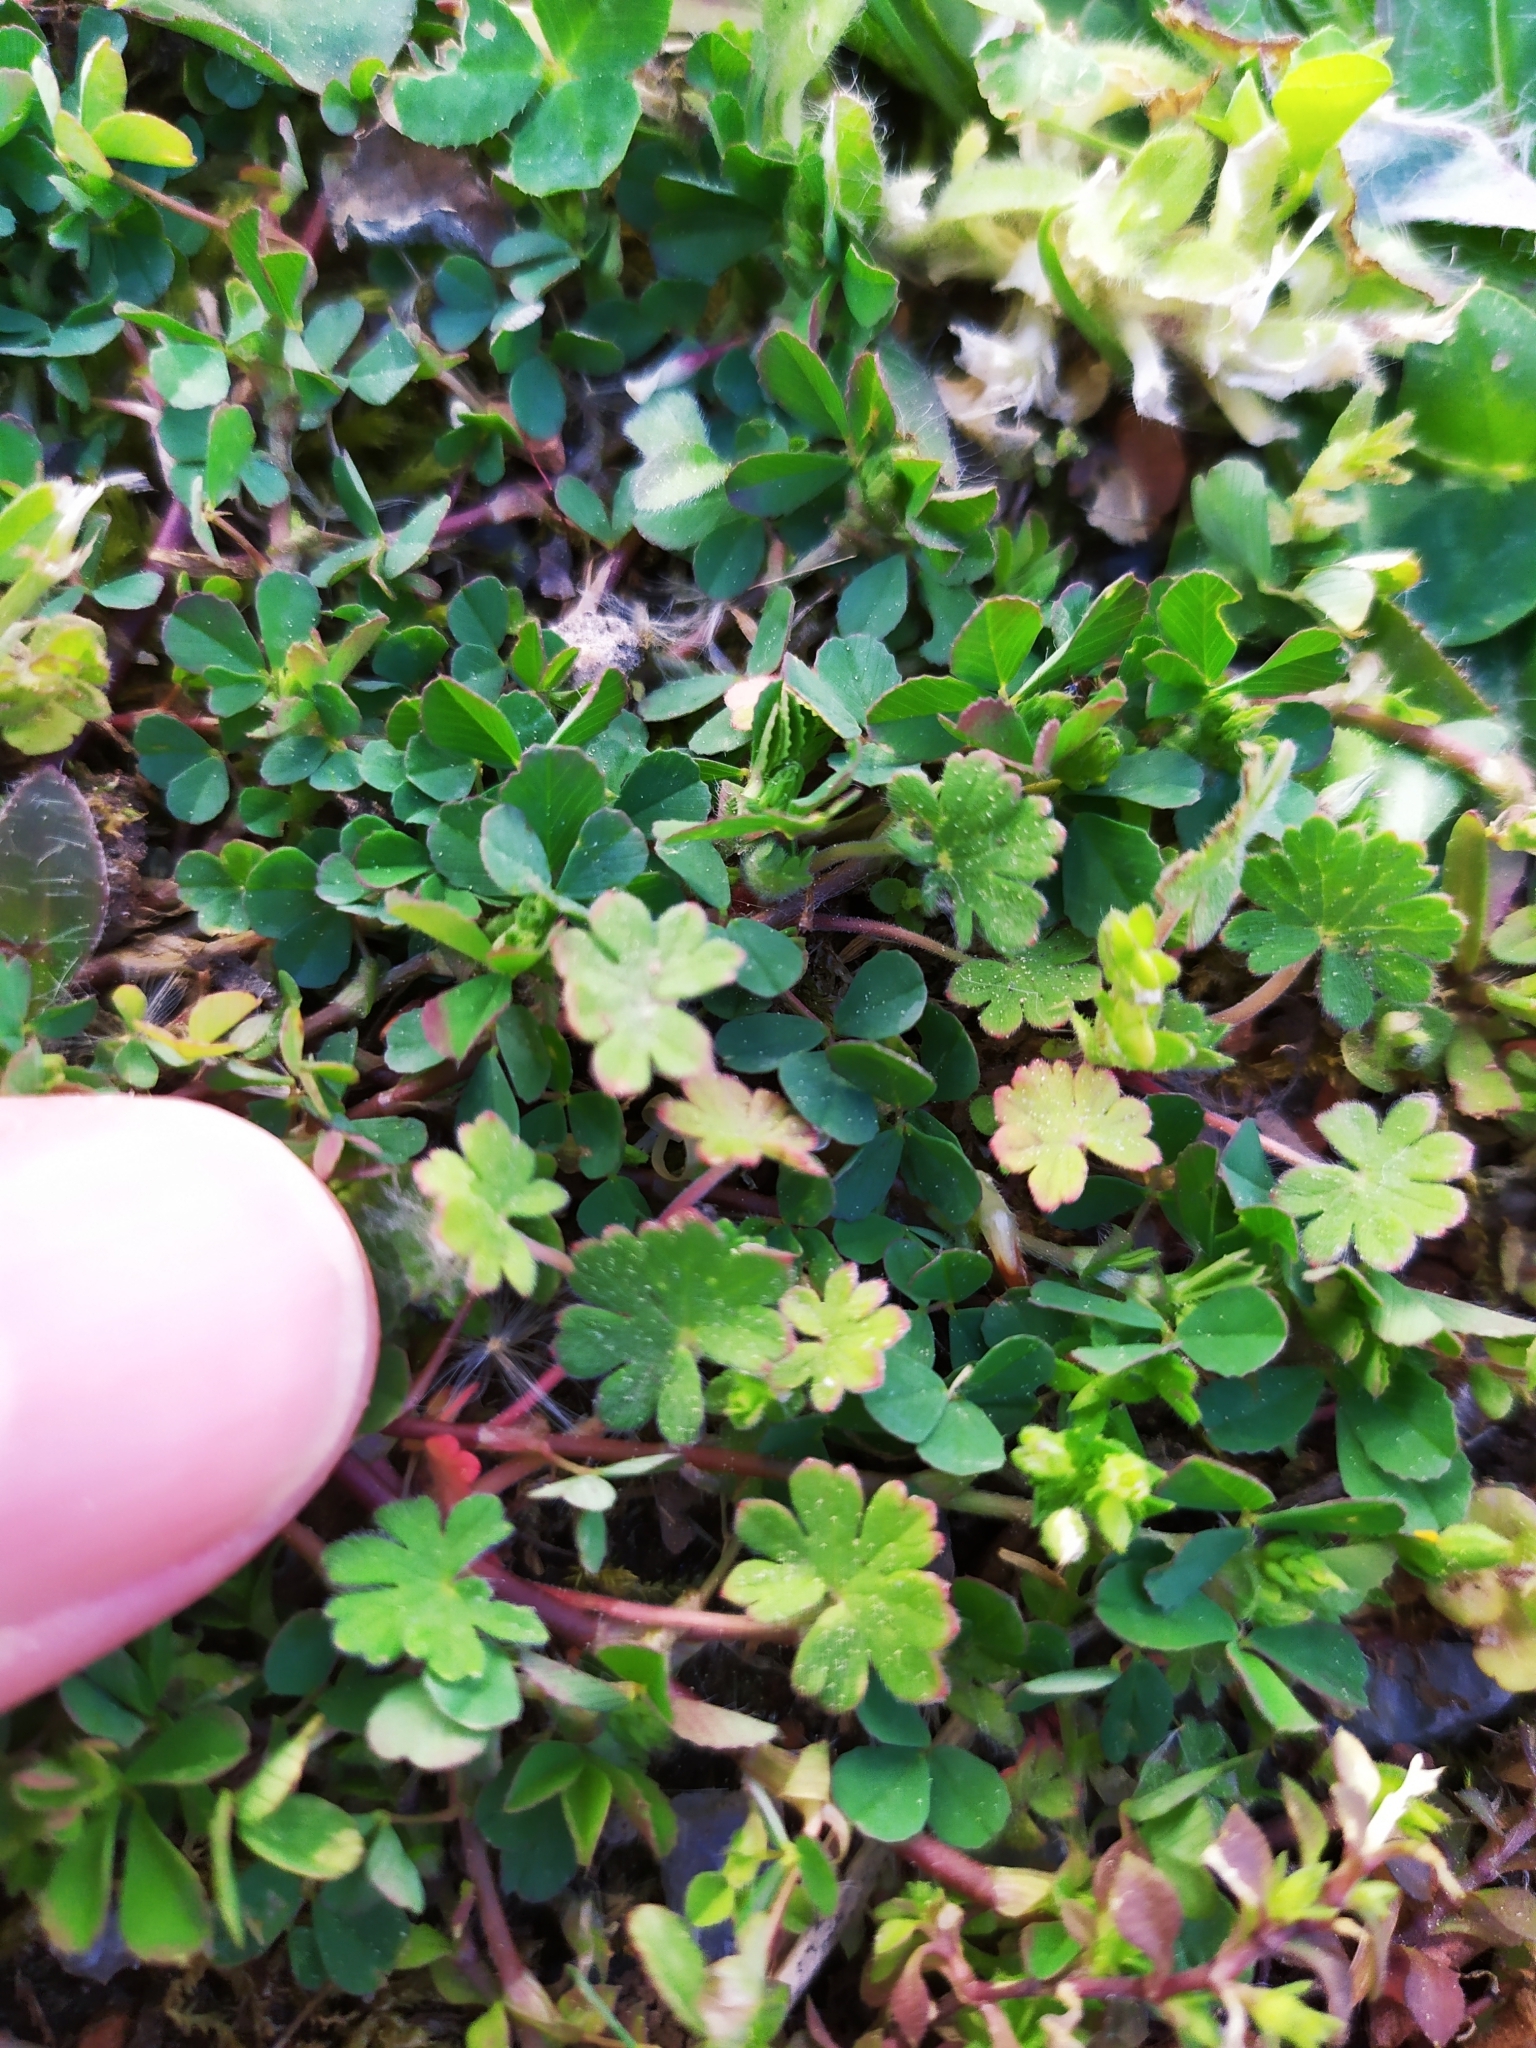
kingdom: Plantae
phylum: Tracheophyta
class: Magnoliopsida
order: Geraniales
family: Geraniaceae
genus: Geranium
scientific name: Geranium pusillum
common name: Small geranium
